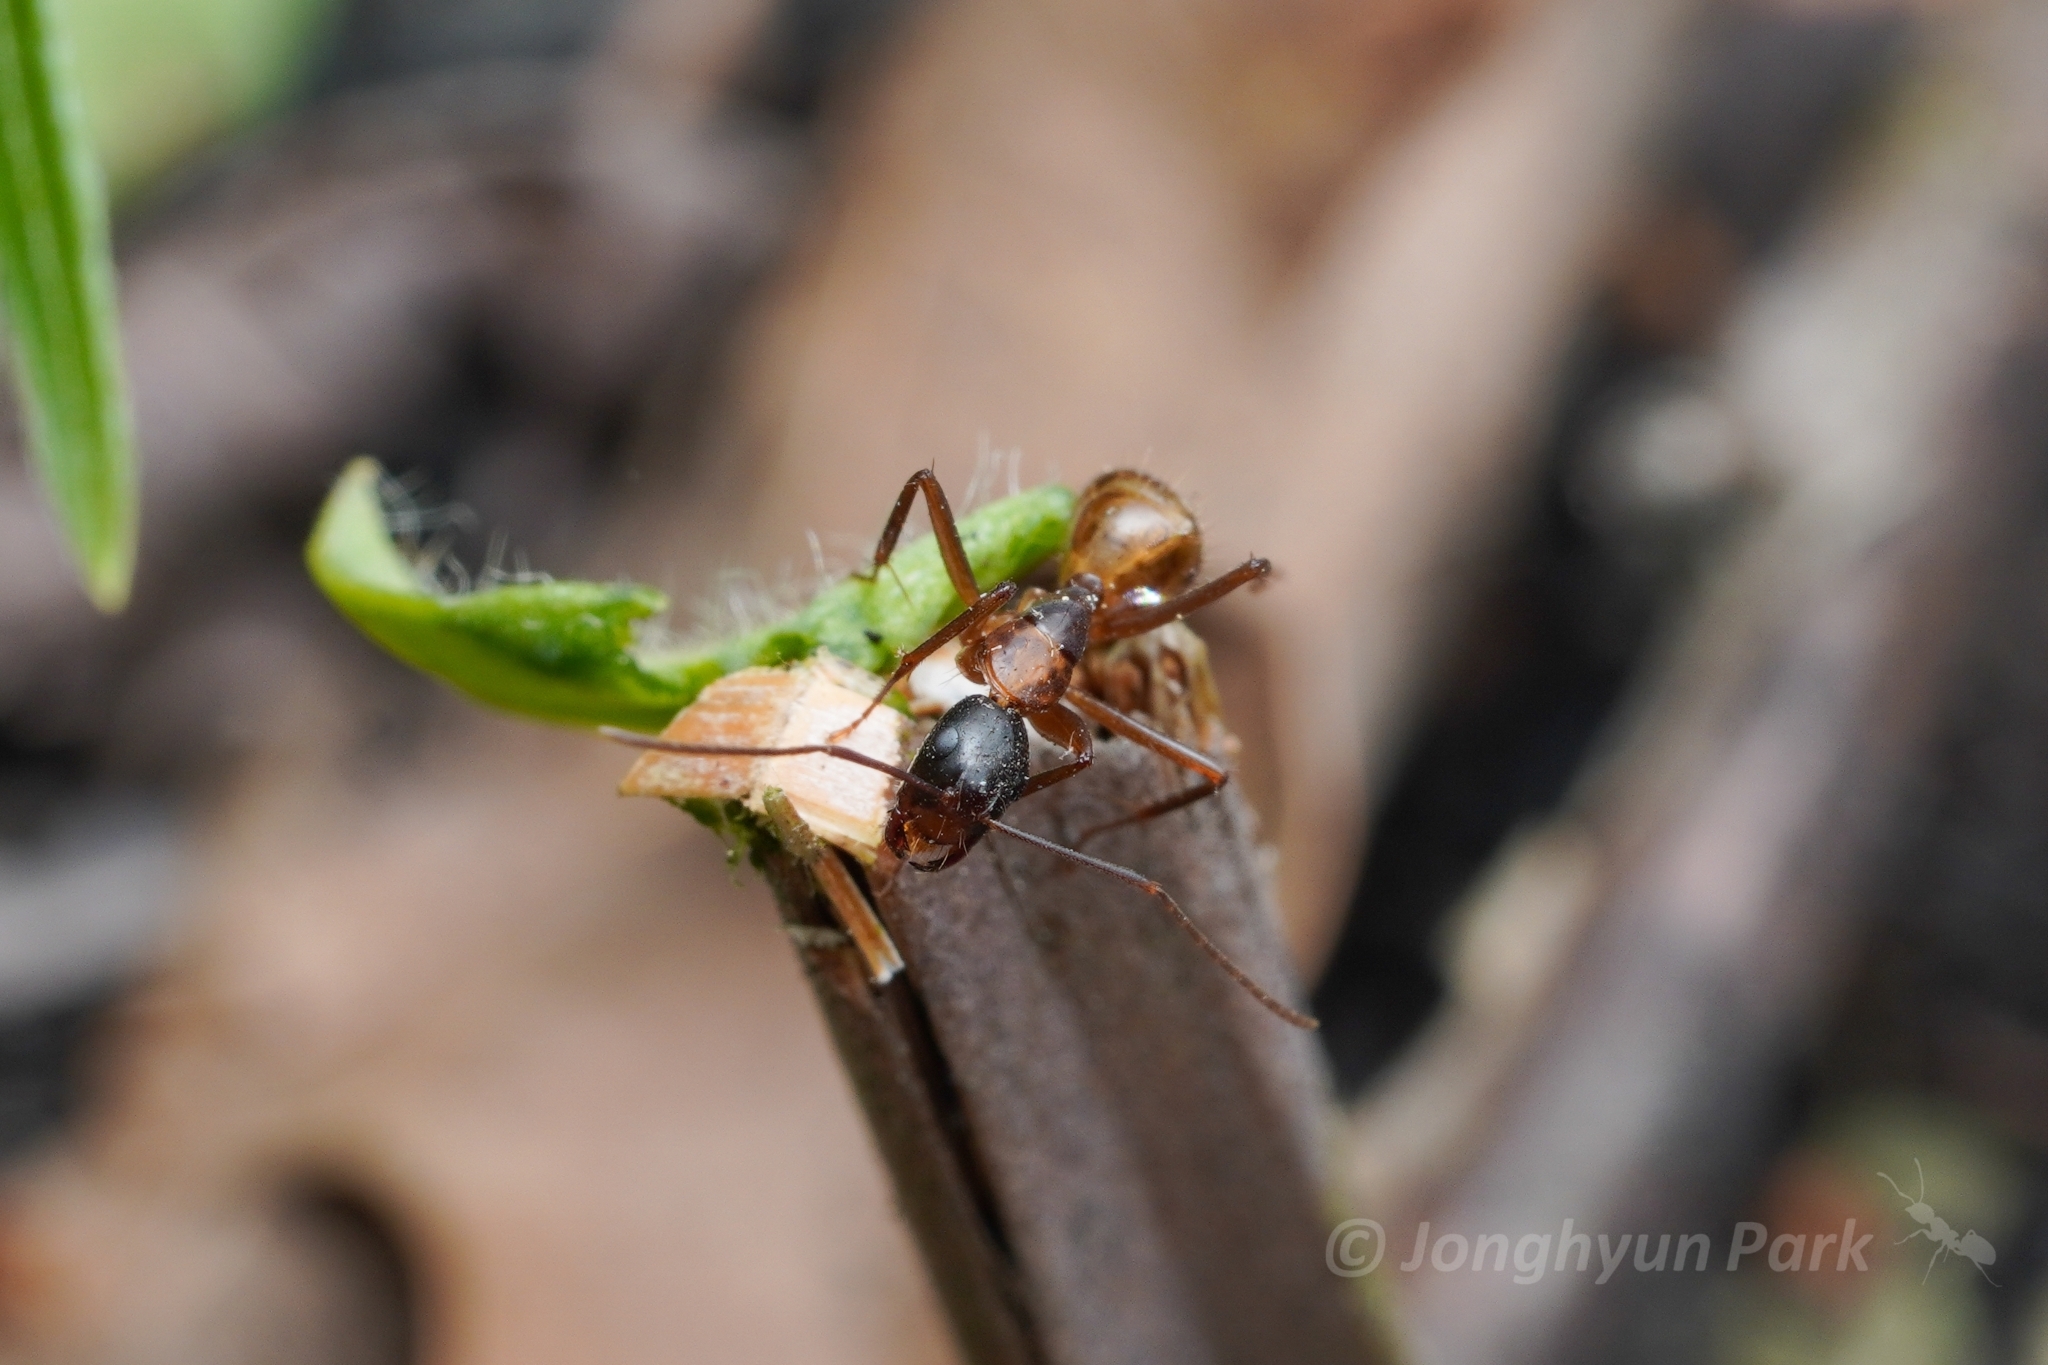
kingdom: Animalia
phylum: Arthropoda
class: Insecta
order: Hymenoptera
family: Formicidae
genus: Camponotus
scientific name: Camponotus americanus
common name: American carpenter ant
